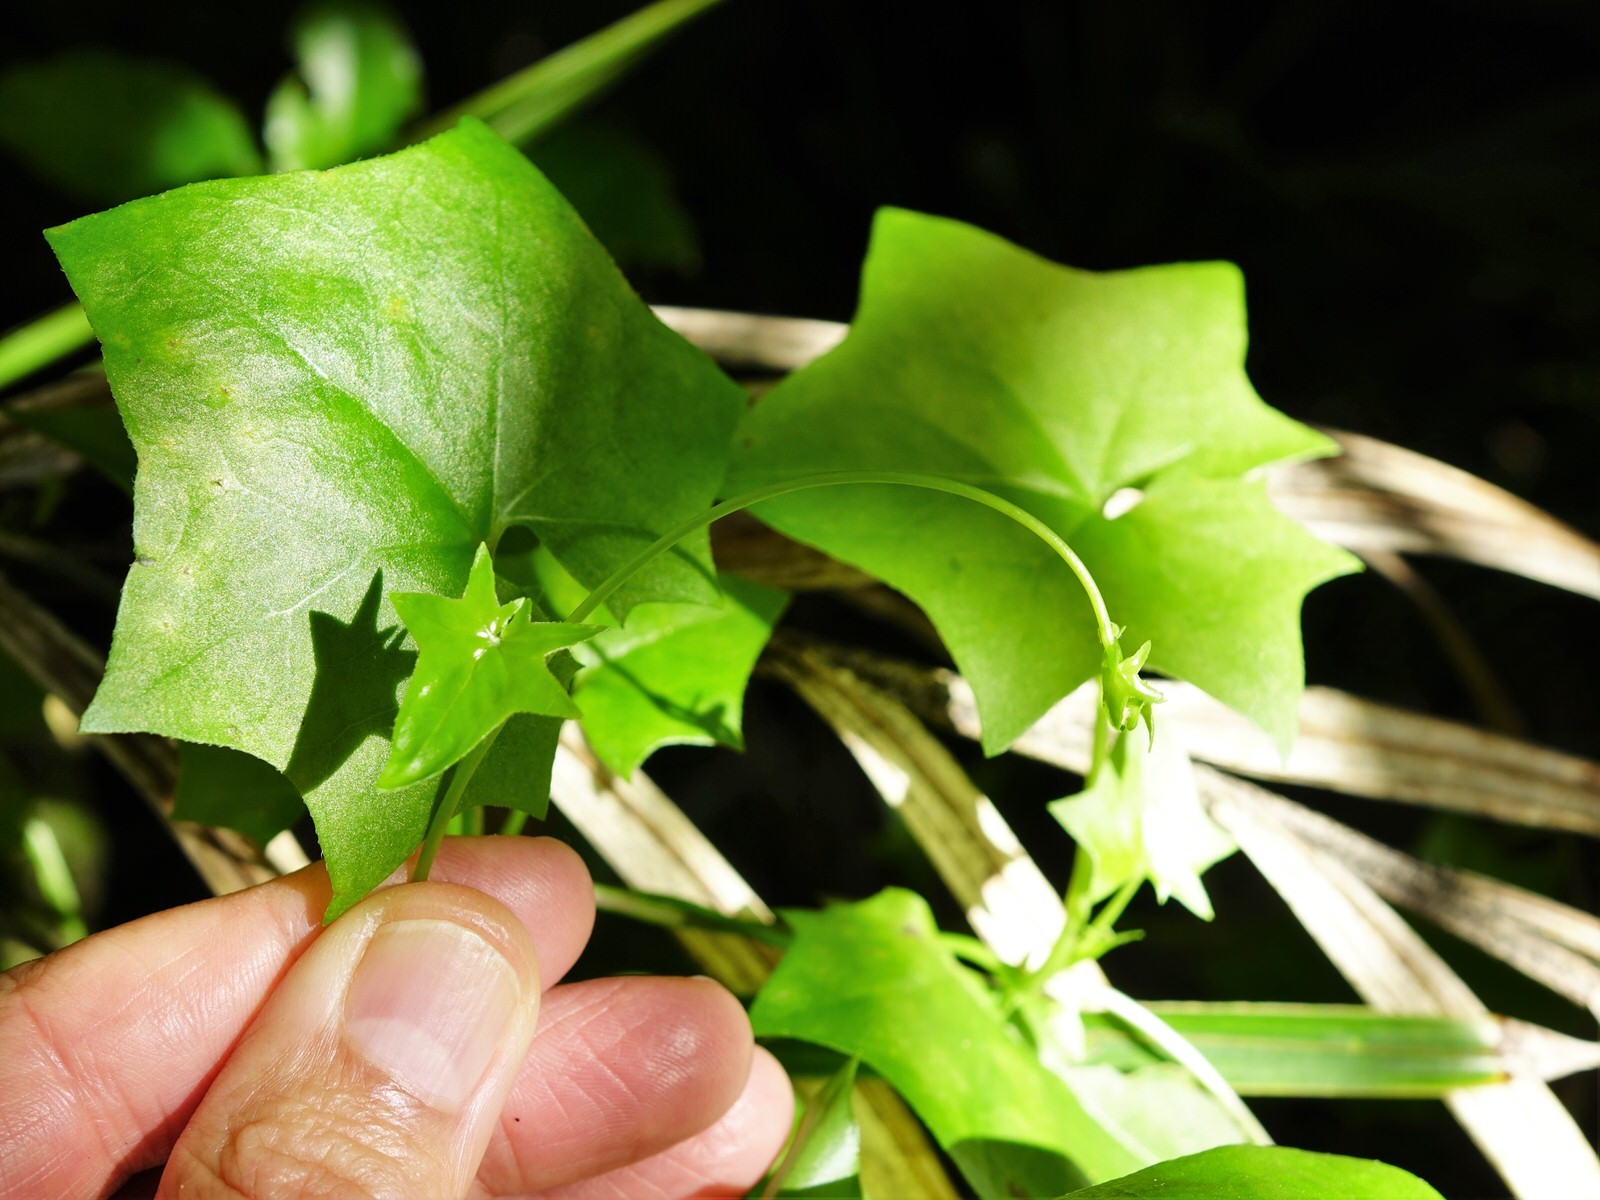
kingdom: Plantae
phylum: Tracheophyta
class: Magnoliopsida
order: Asterales
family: Asteraceae
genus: Delairea
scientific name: Delairea odorata
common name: Cape-ivy
